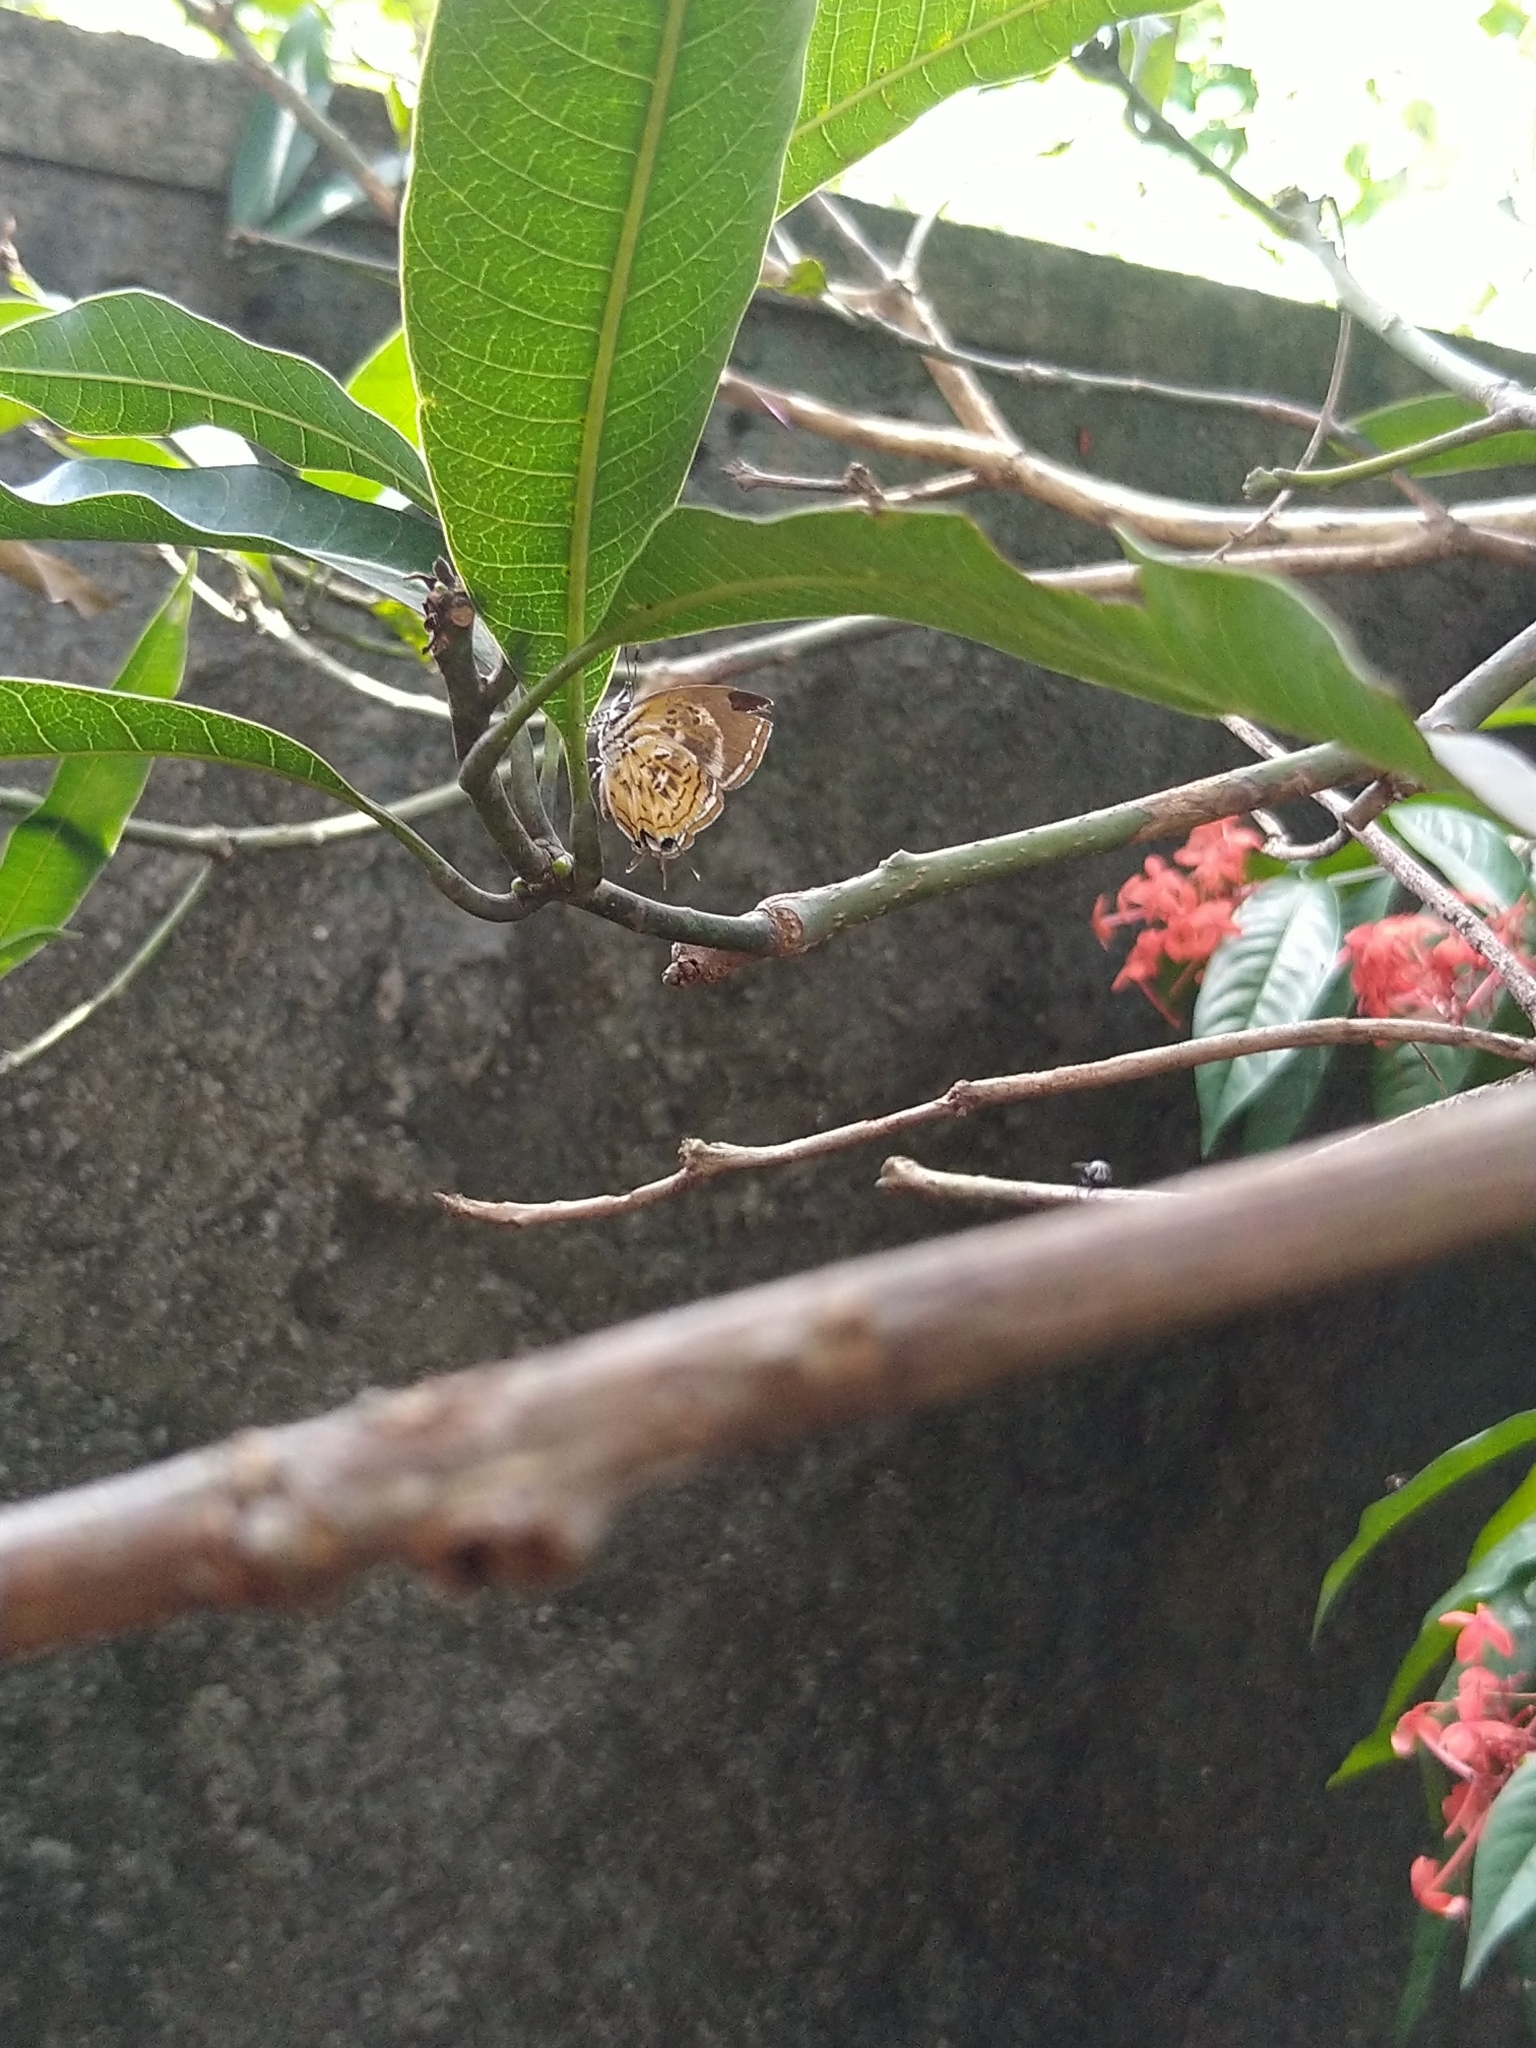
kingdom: Animalia
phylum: Arthropoda
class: Insecta
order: Lepidoptera
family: Lycaenidae
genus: Rathinda
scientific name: Rathinda amor
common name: Monkey puzzle
